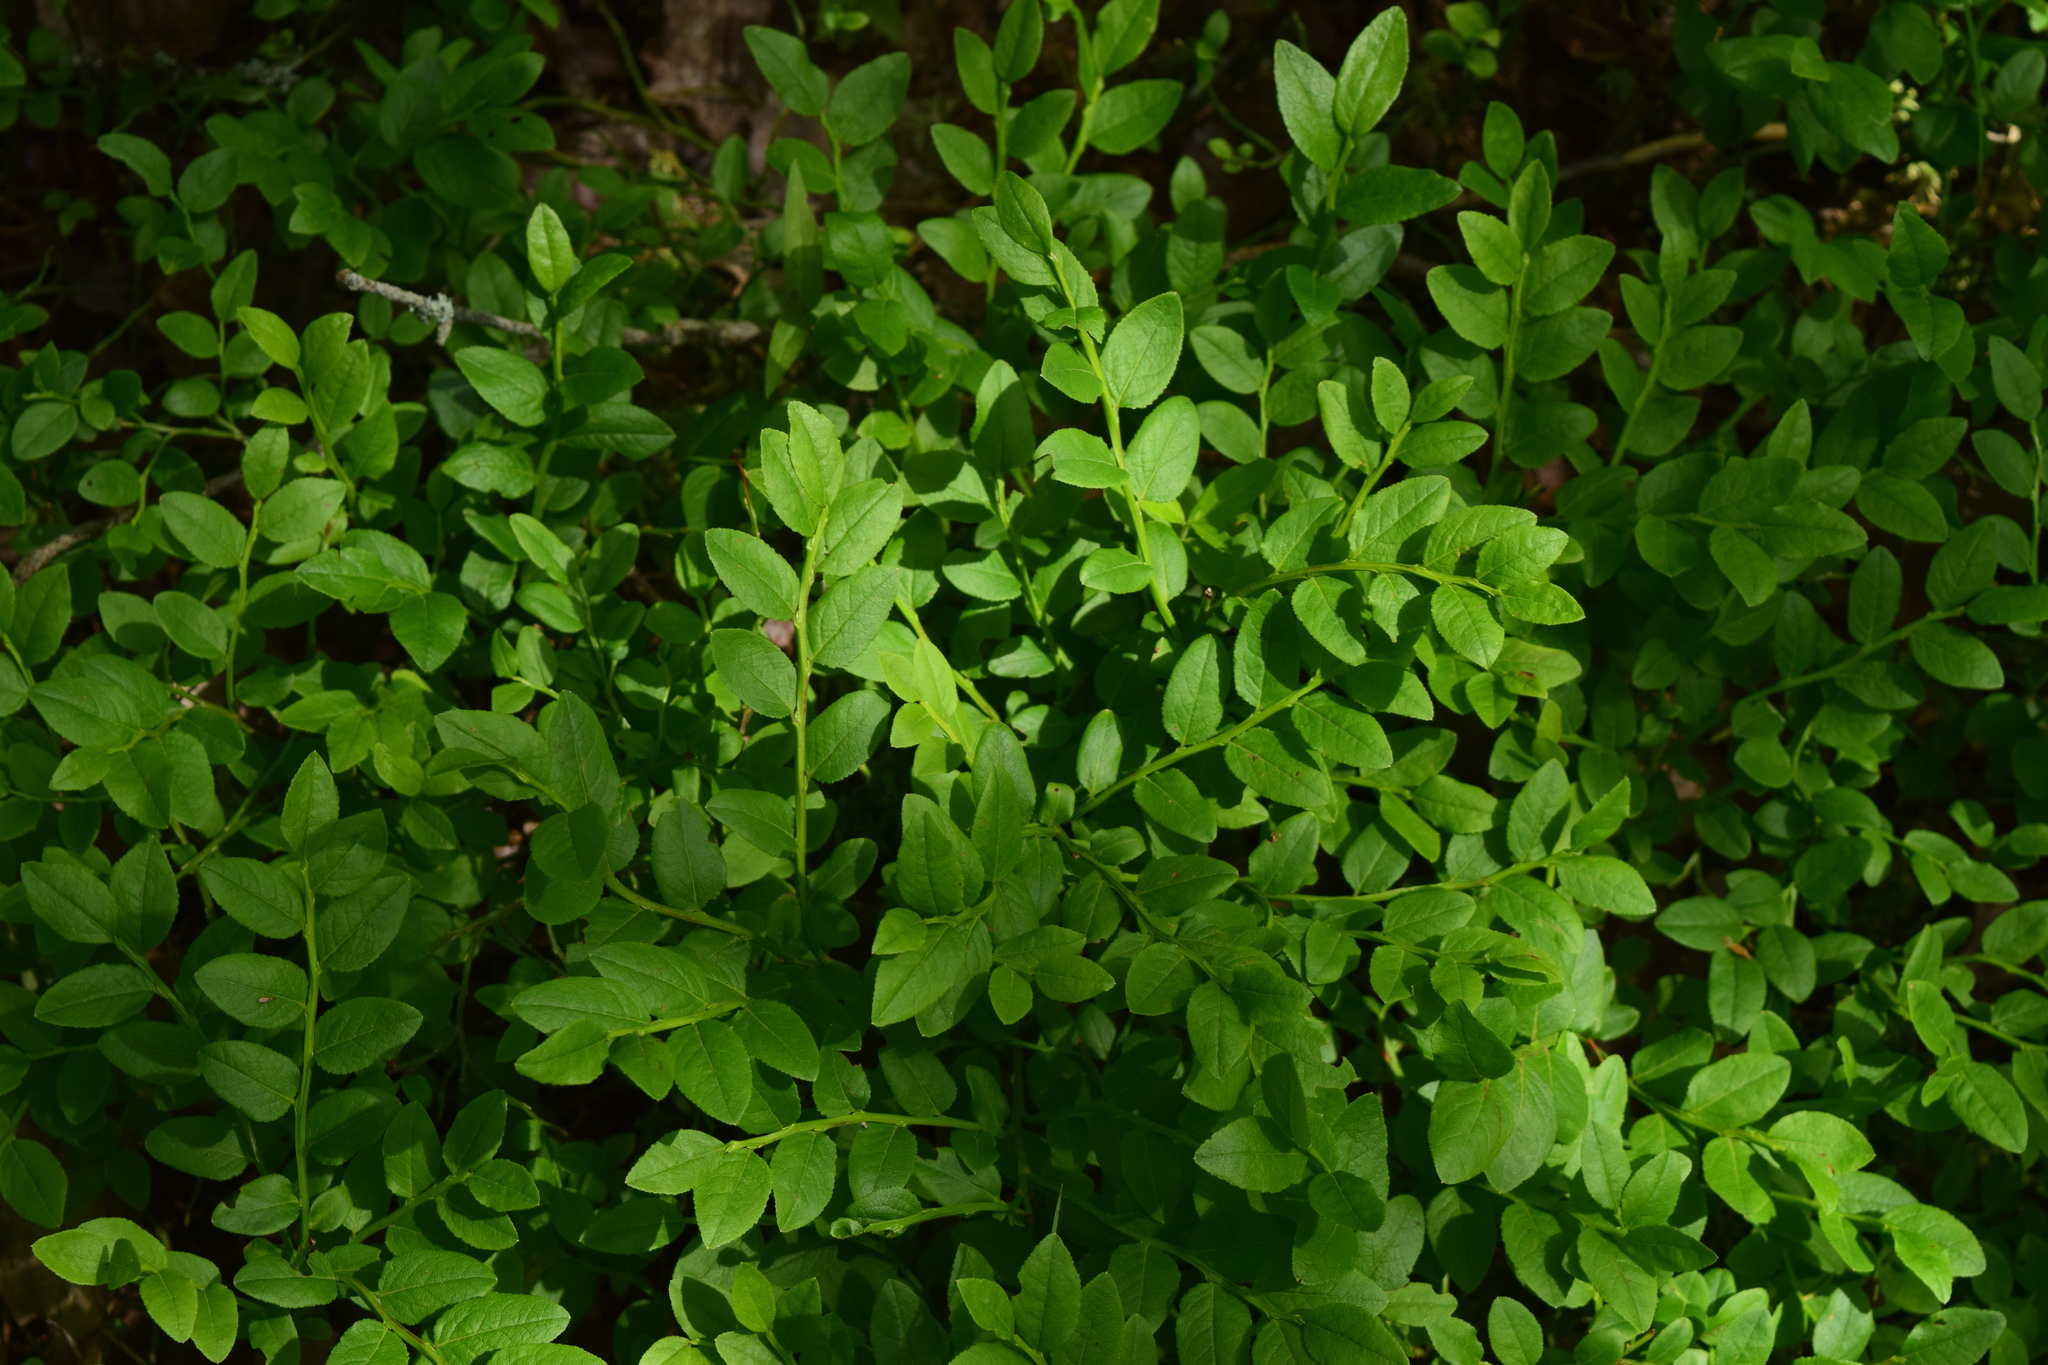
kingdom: Plantae
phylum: Tracheophyta
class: Magnoliopsida
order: Ericales
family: Ericaceae
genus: Vaccinium
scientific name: Vaccinium myrtillus
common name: Bilberry
